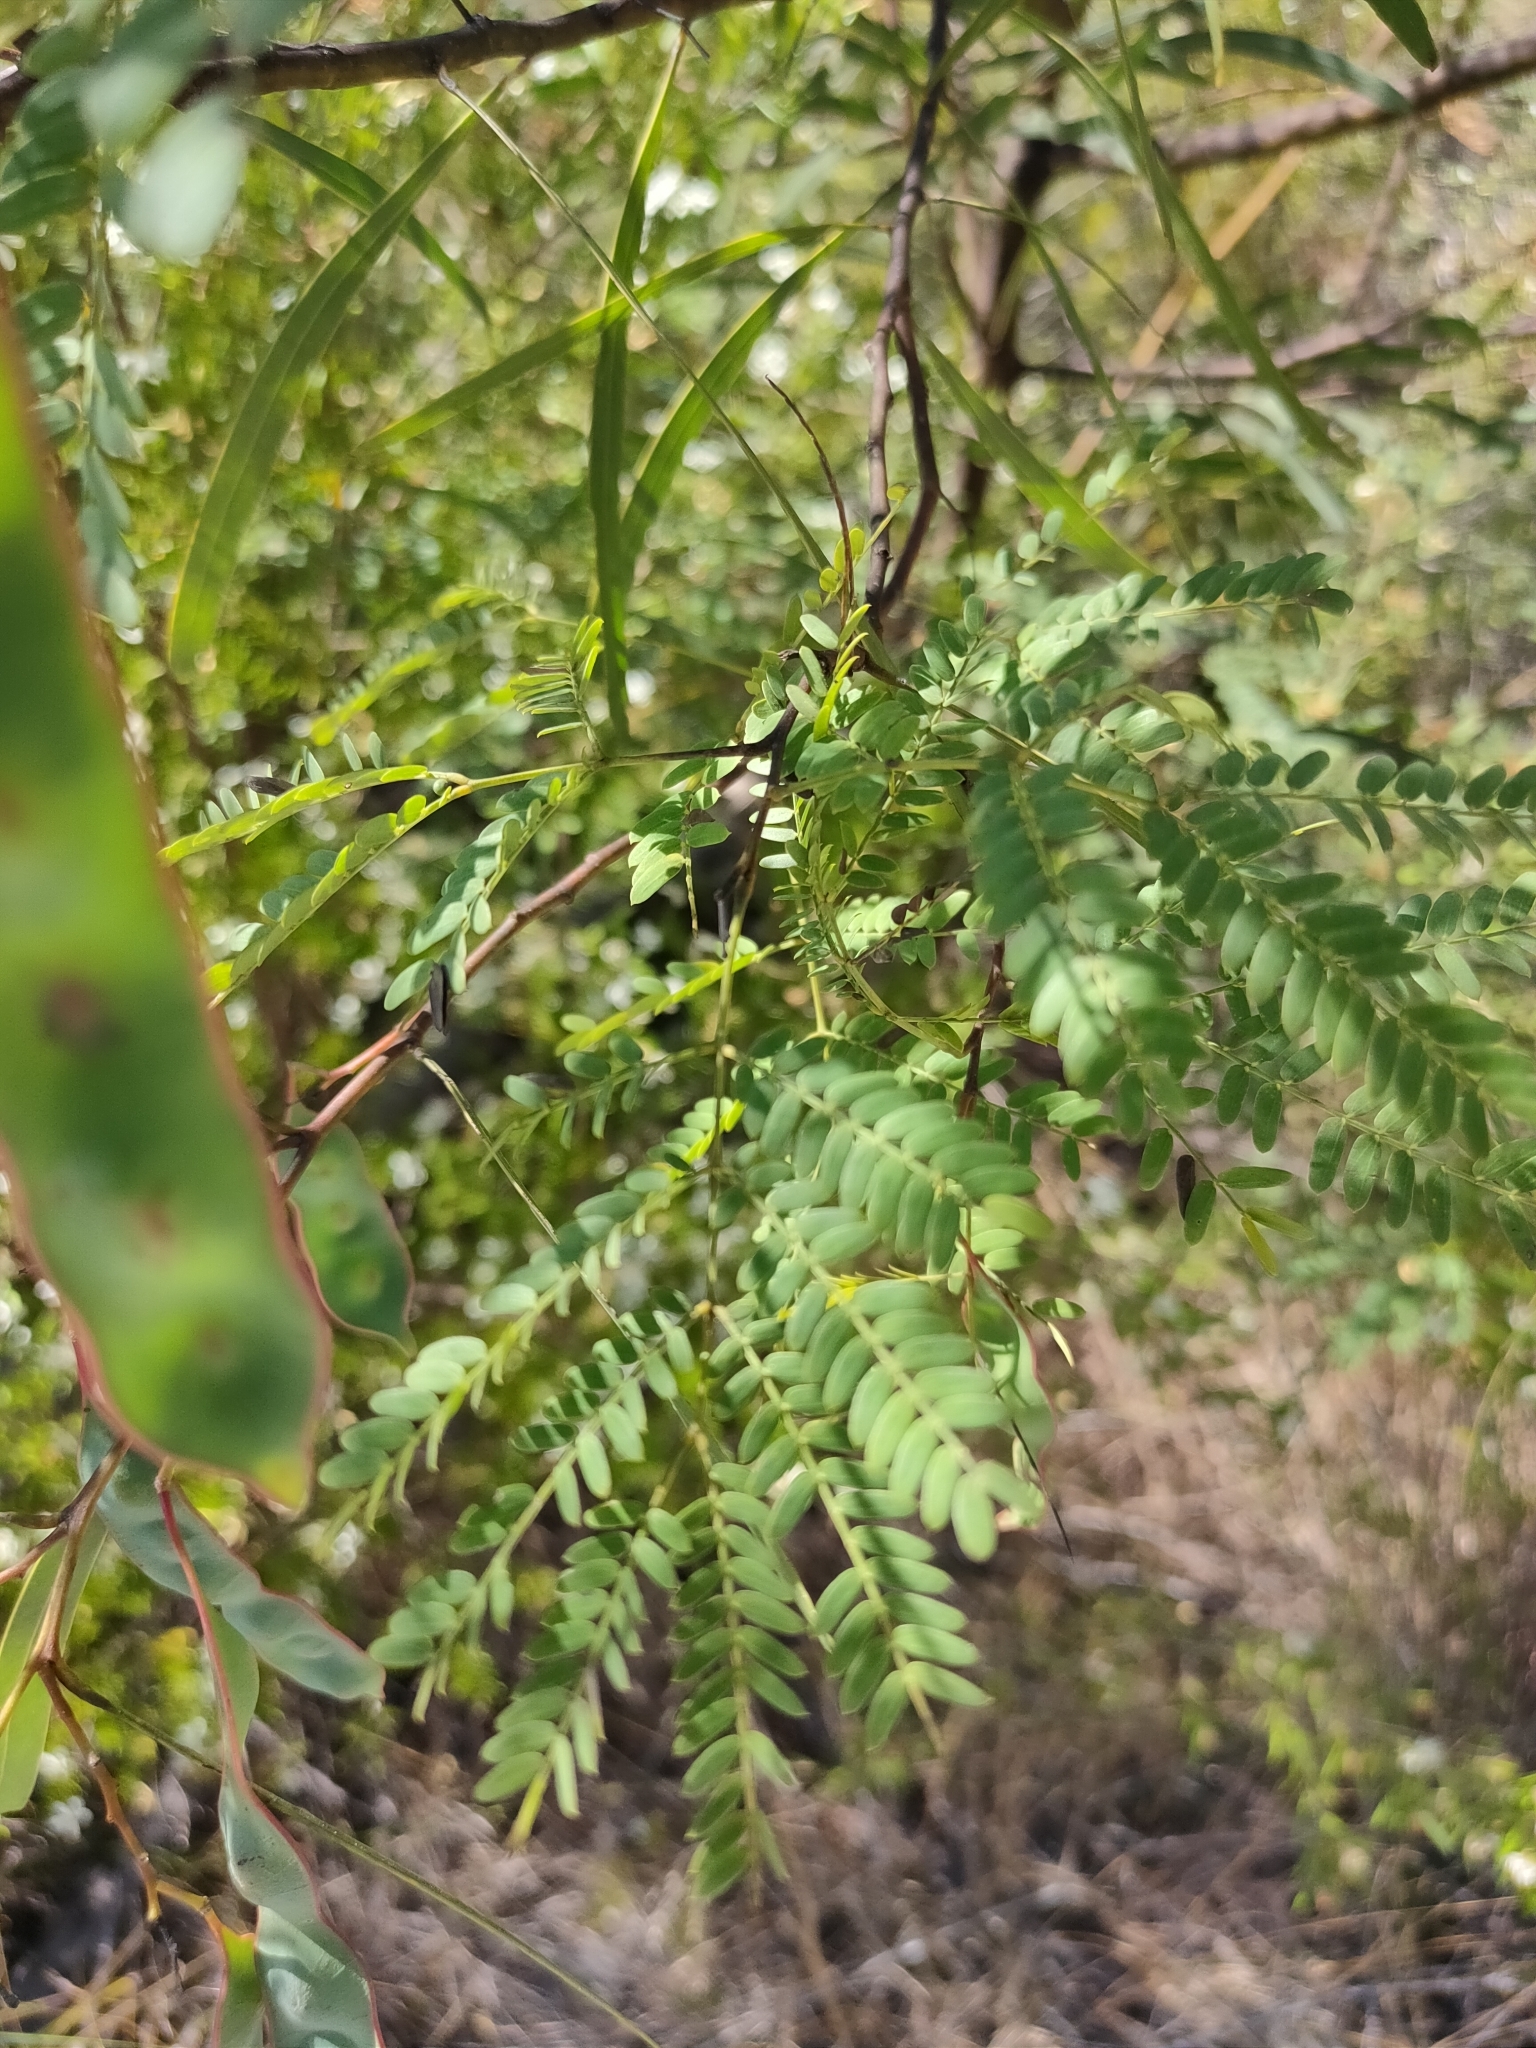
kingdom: Plantae
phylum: Tracheophyta
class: Magnoliopsida
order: Fabales
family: Fabaceae
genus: Acacia
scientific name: Acacia attenuata
